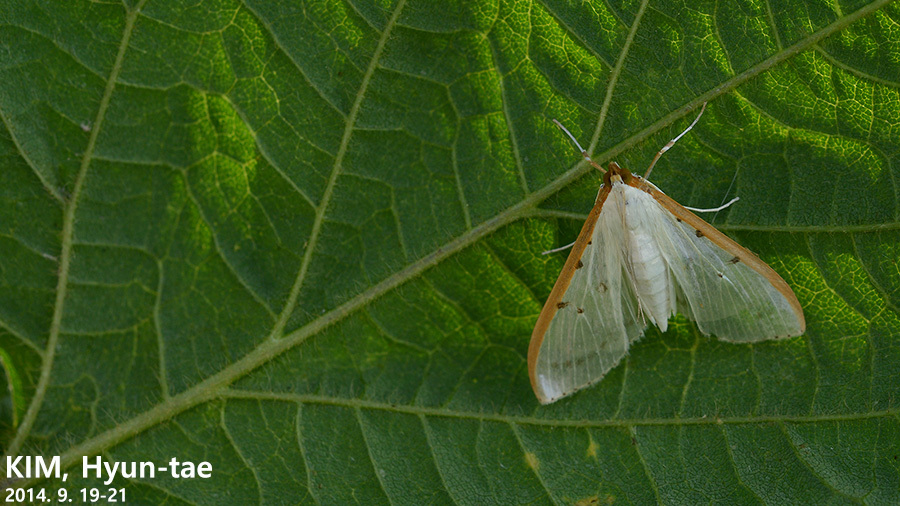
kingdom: Animalia
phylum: Arthropoda
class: Insecta
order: Lepidoptera
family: Crambidae
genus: Palpita
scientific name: Palpita nigropunctalis
